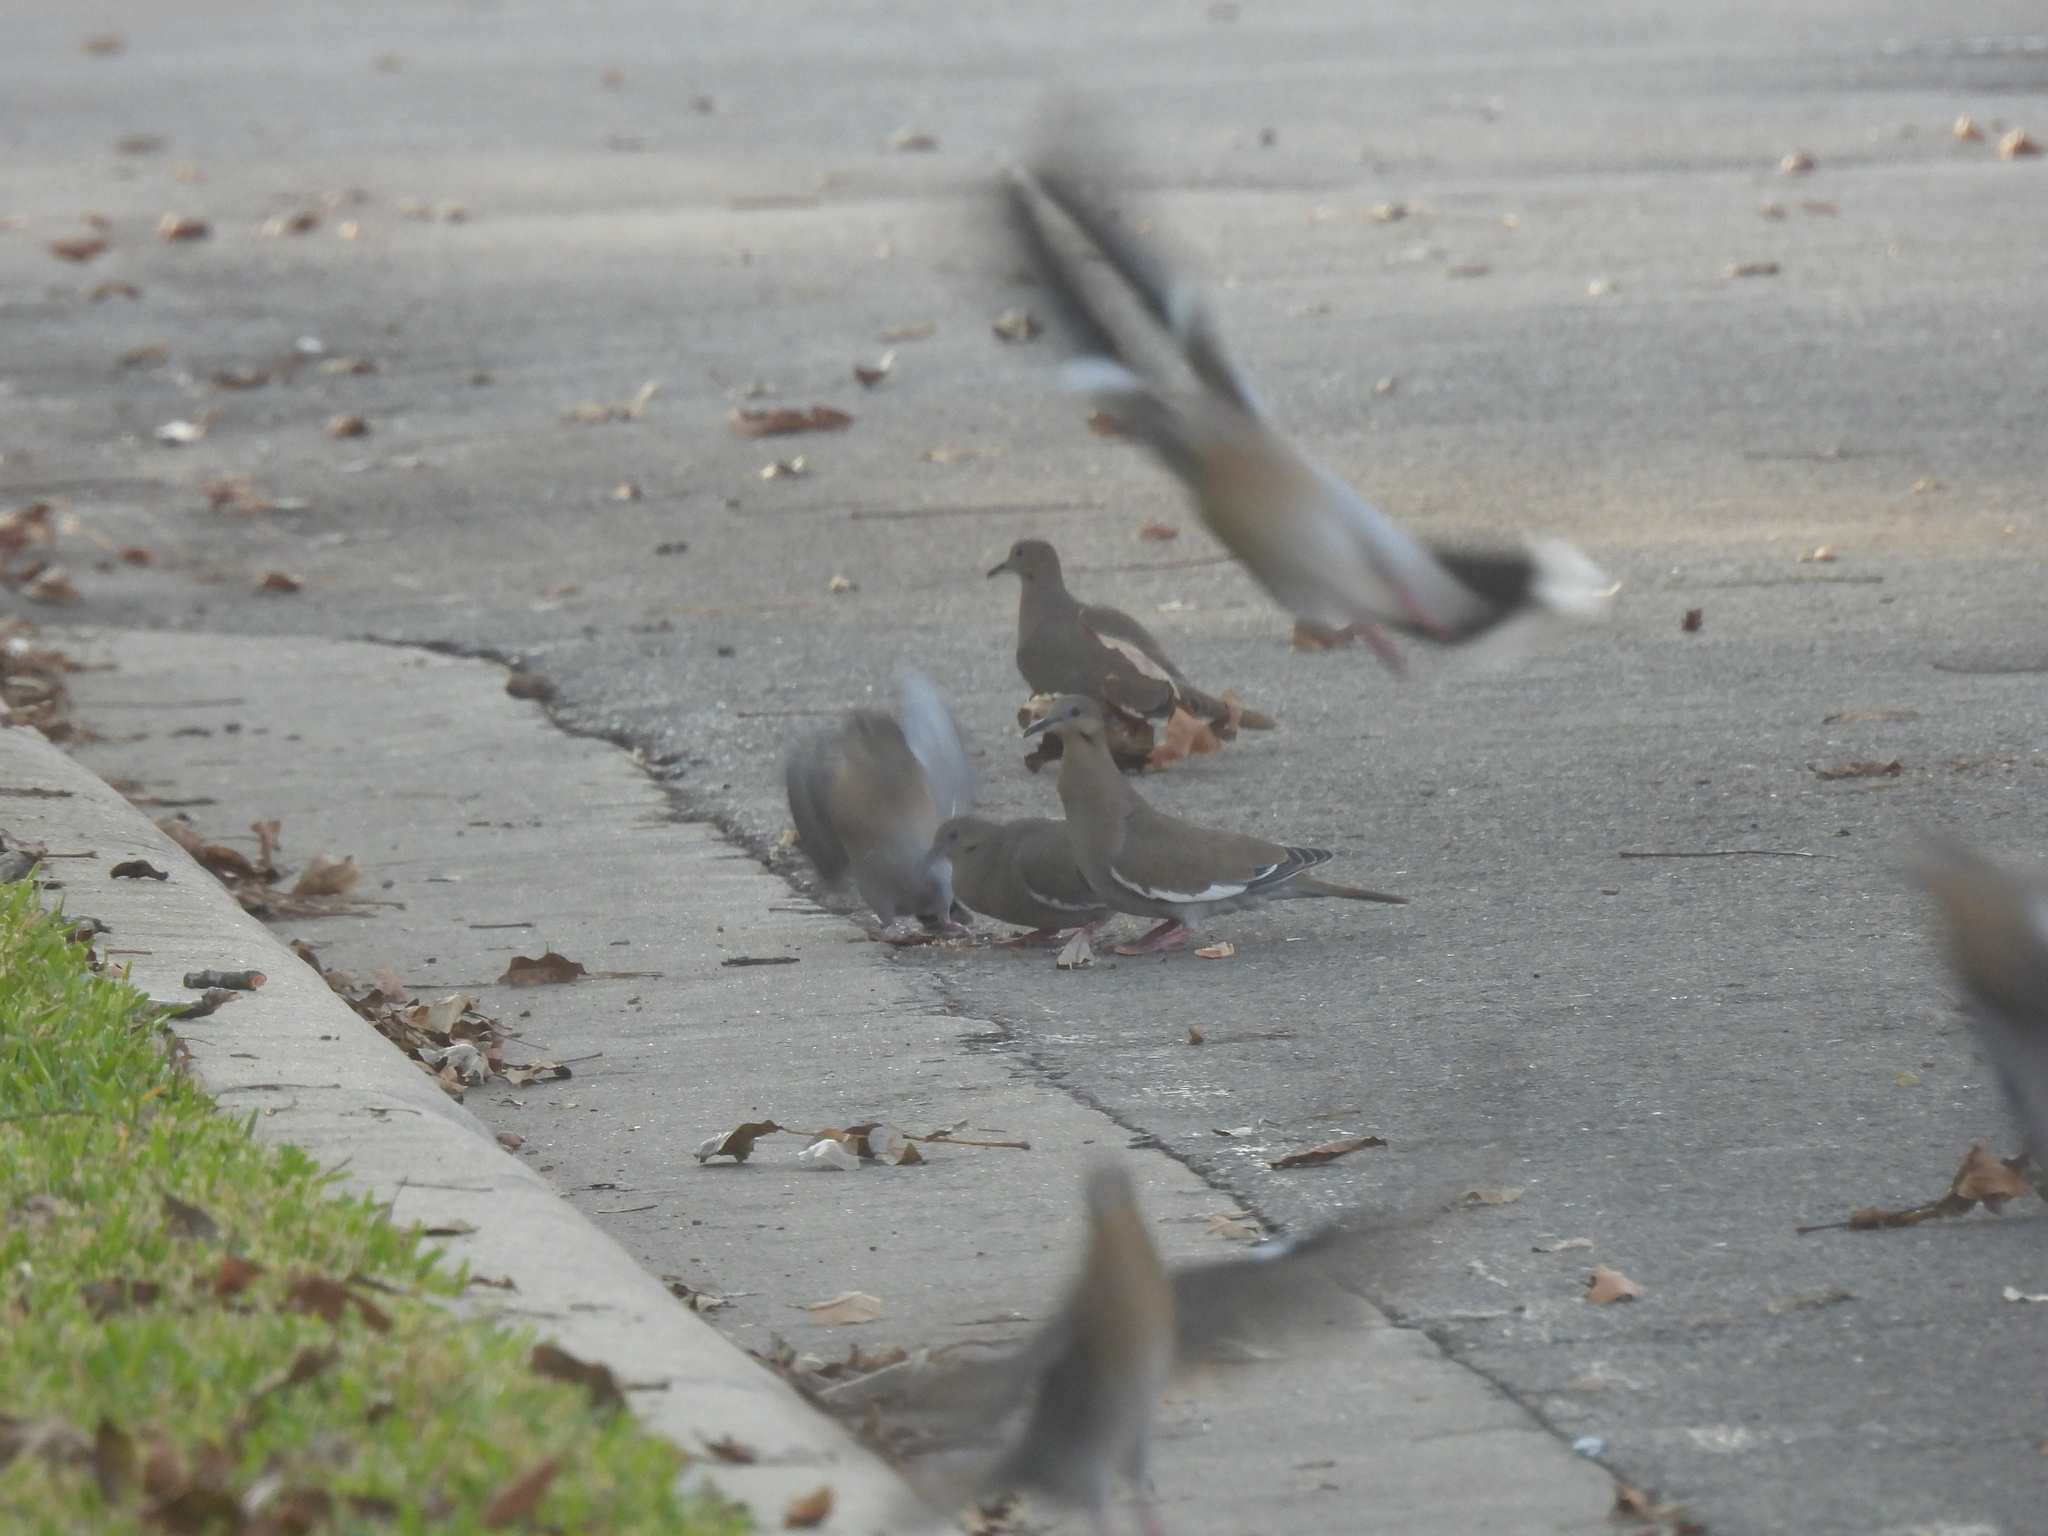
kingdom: Animalia
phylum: Chordata
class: Aves
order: Columbiformes
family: Columbidae
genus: Zenaida
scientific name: Zenaida asiatica
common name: White-winged dove
